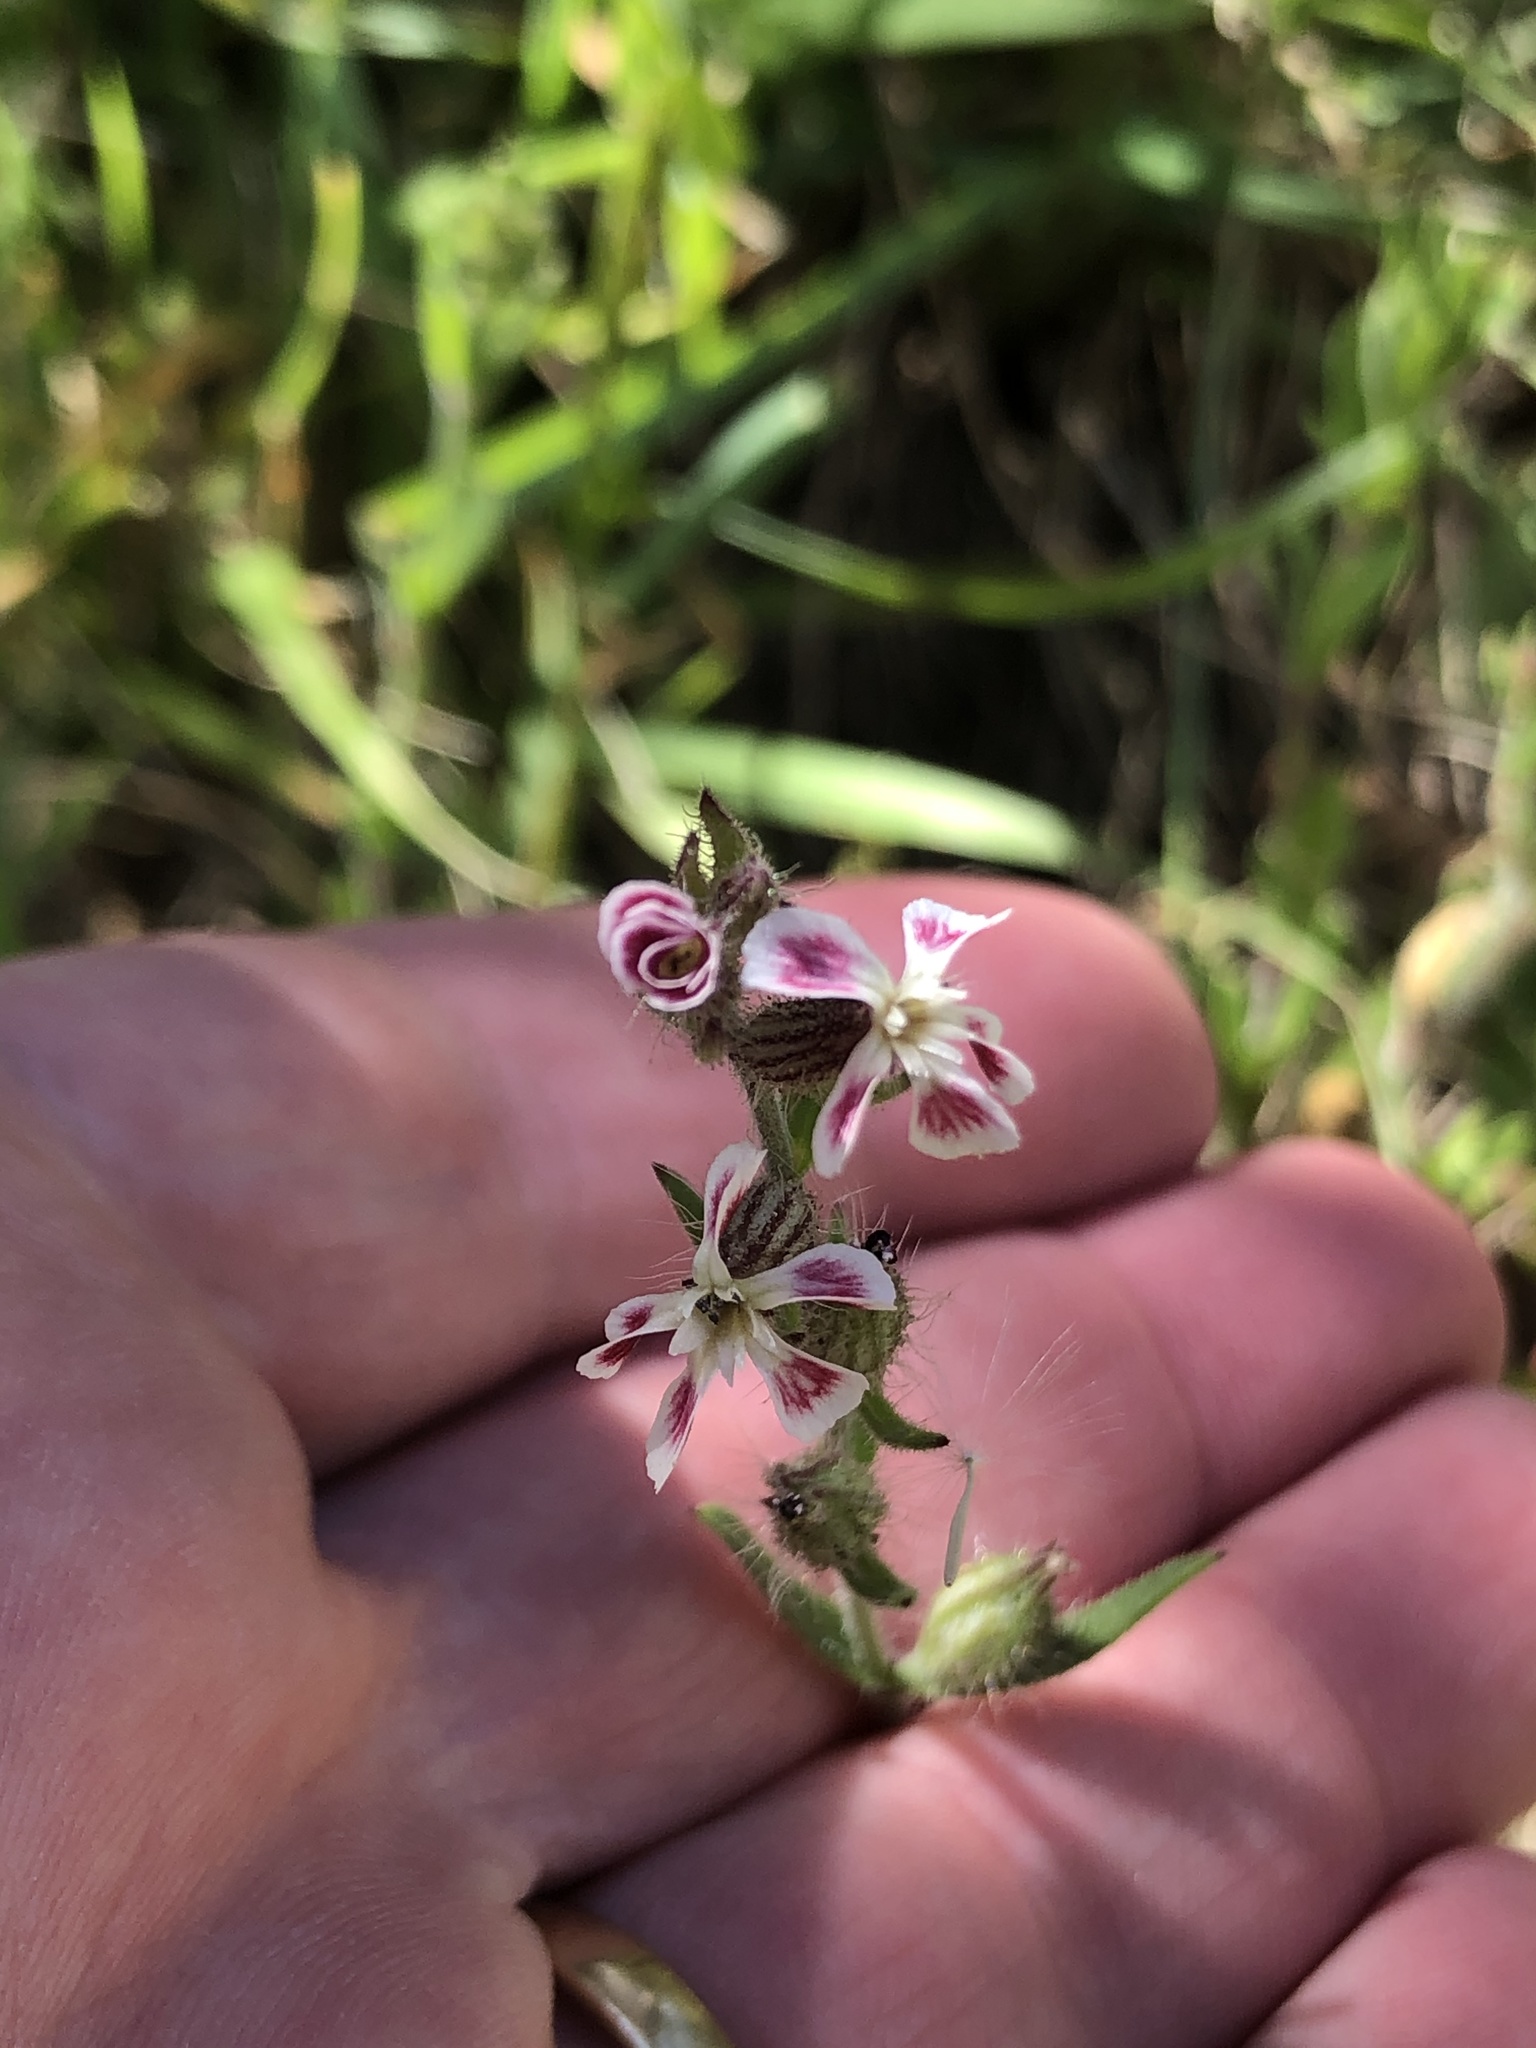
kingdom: Plantae
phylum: Tracheophyta
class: Magnoliopsida
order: Caryophyllales
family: Caryophyllaceae
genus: Silene
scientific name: Silene gallica
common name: Small-flowered catchfly
